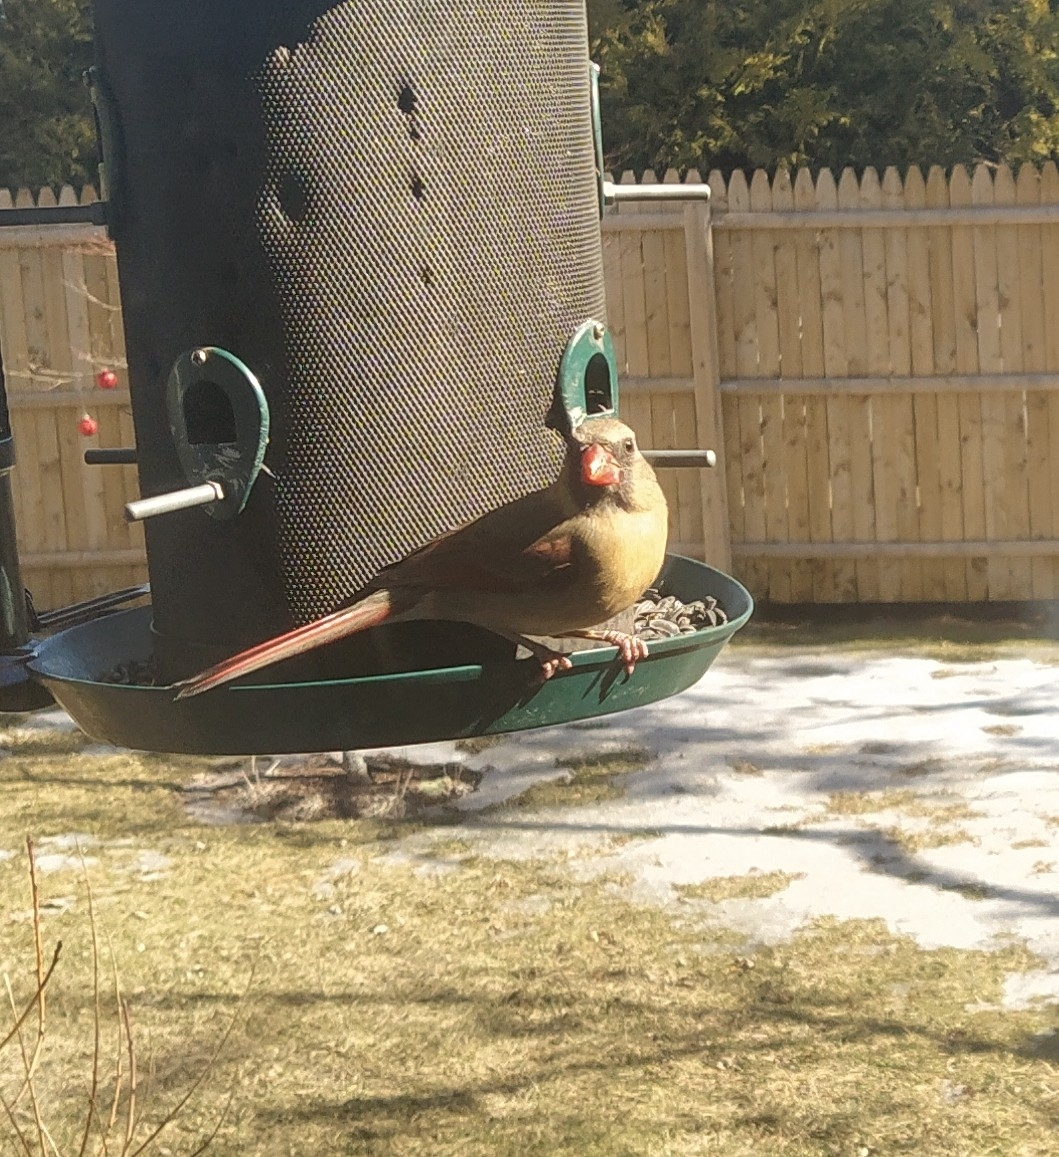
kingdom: Animalia
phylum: Chordata
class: Aves
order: Passeriformes
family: Cardinalidae
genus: Cardinalis
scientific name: Cardinalis cardinalis
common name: Northern cardinal
